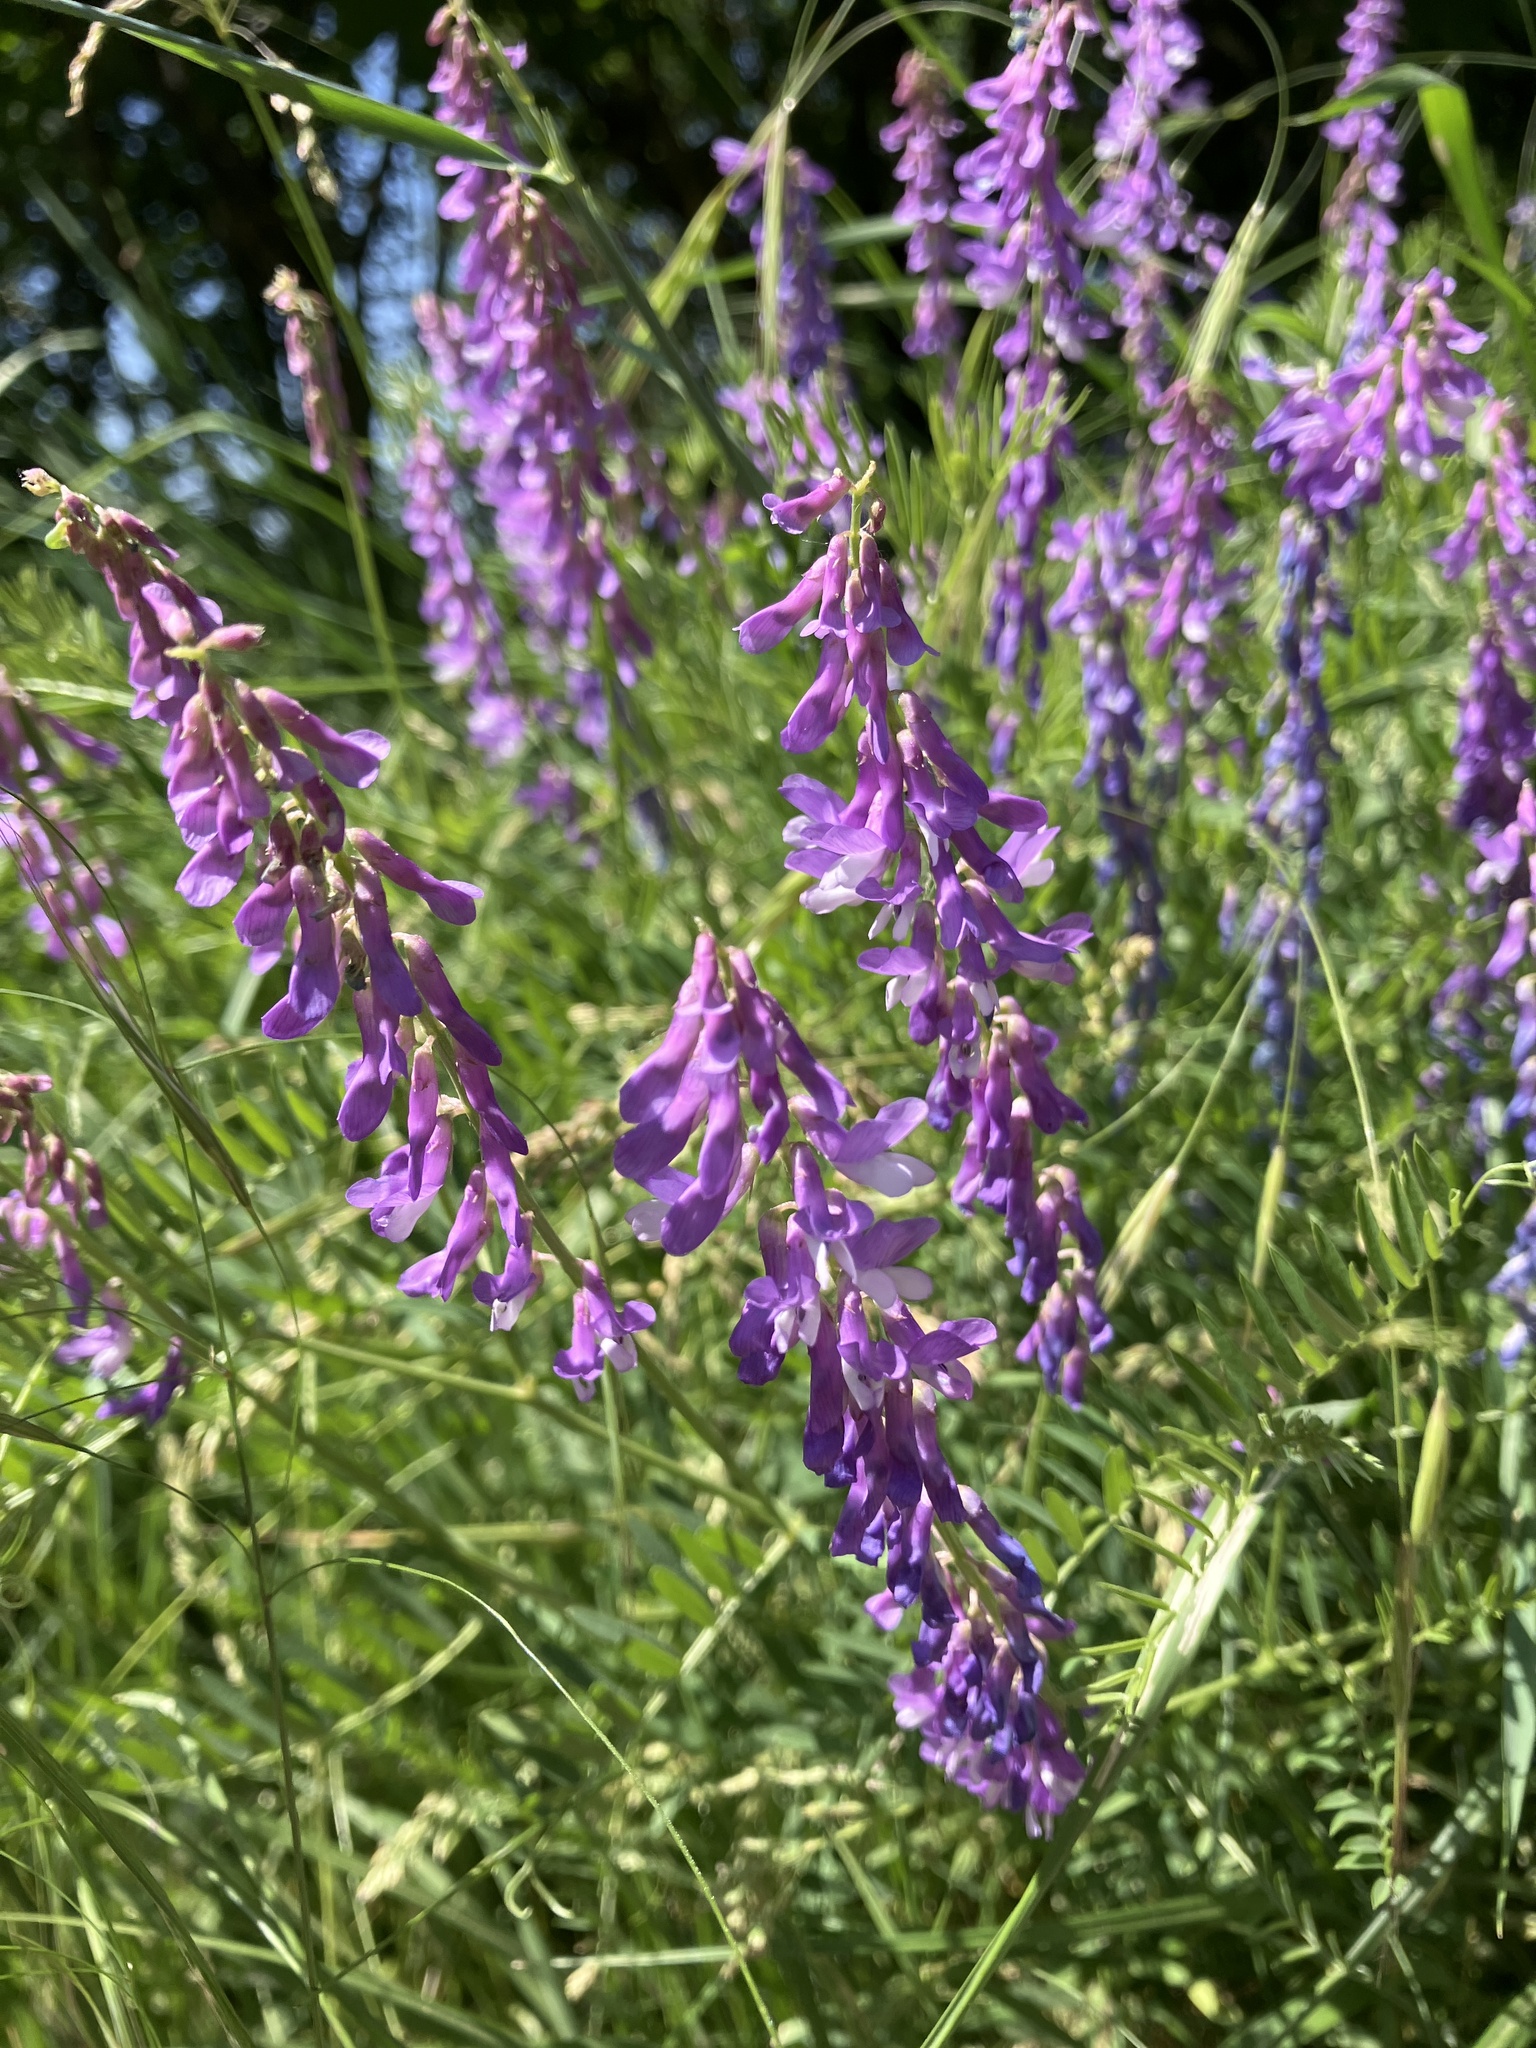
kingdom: Plantae
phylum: Tracheophyta
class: Magnoliopsida
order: Fabales
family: Fabaceae
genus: Vicia
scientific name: Vicia cracca
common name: Bird vetch
